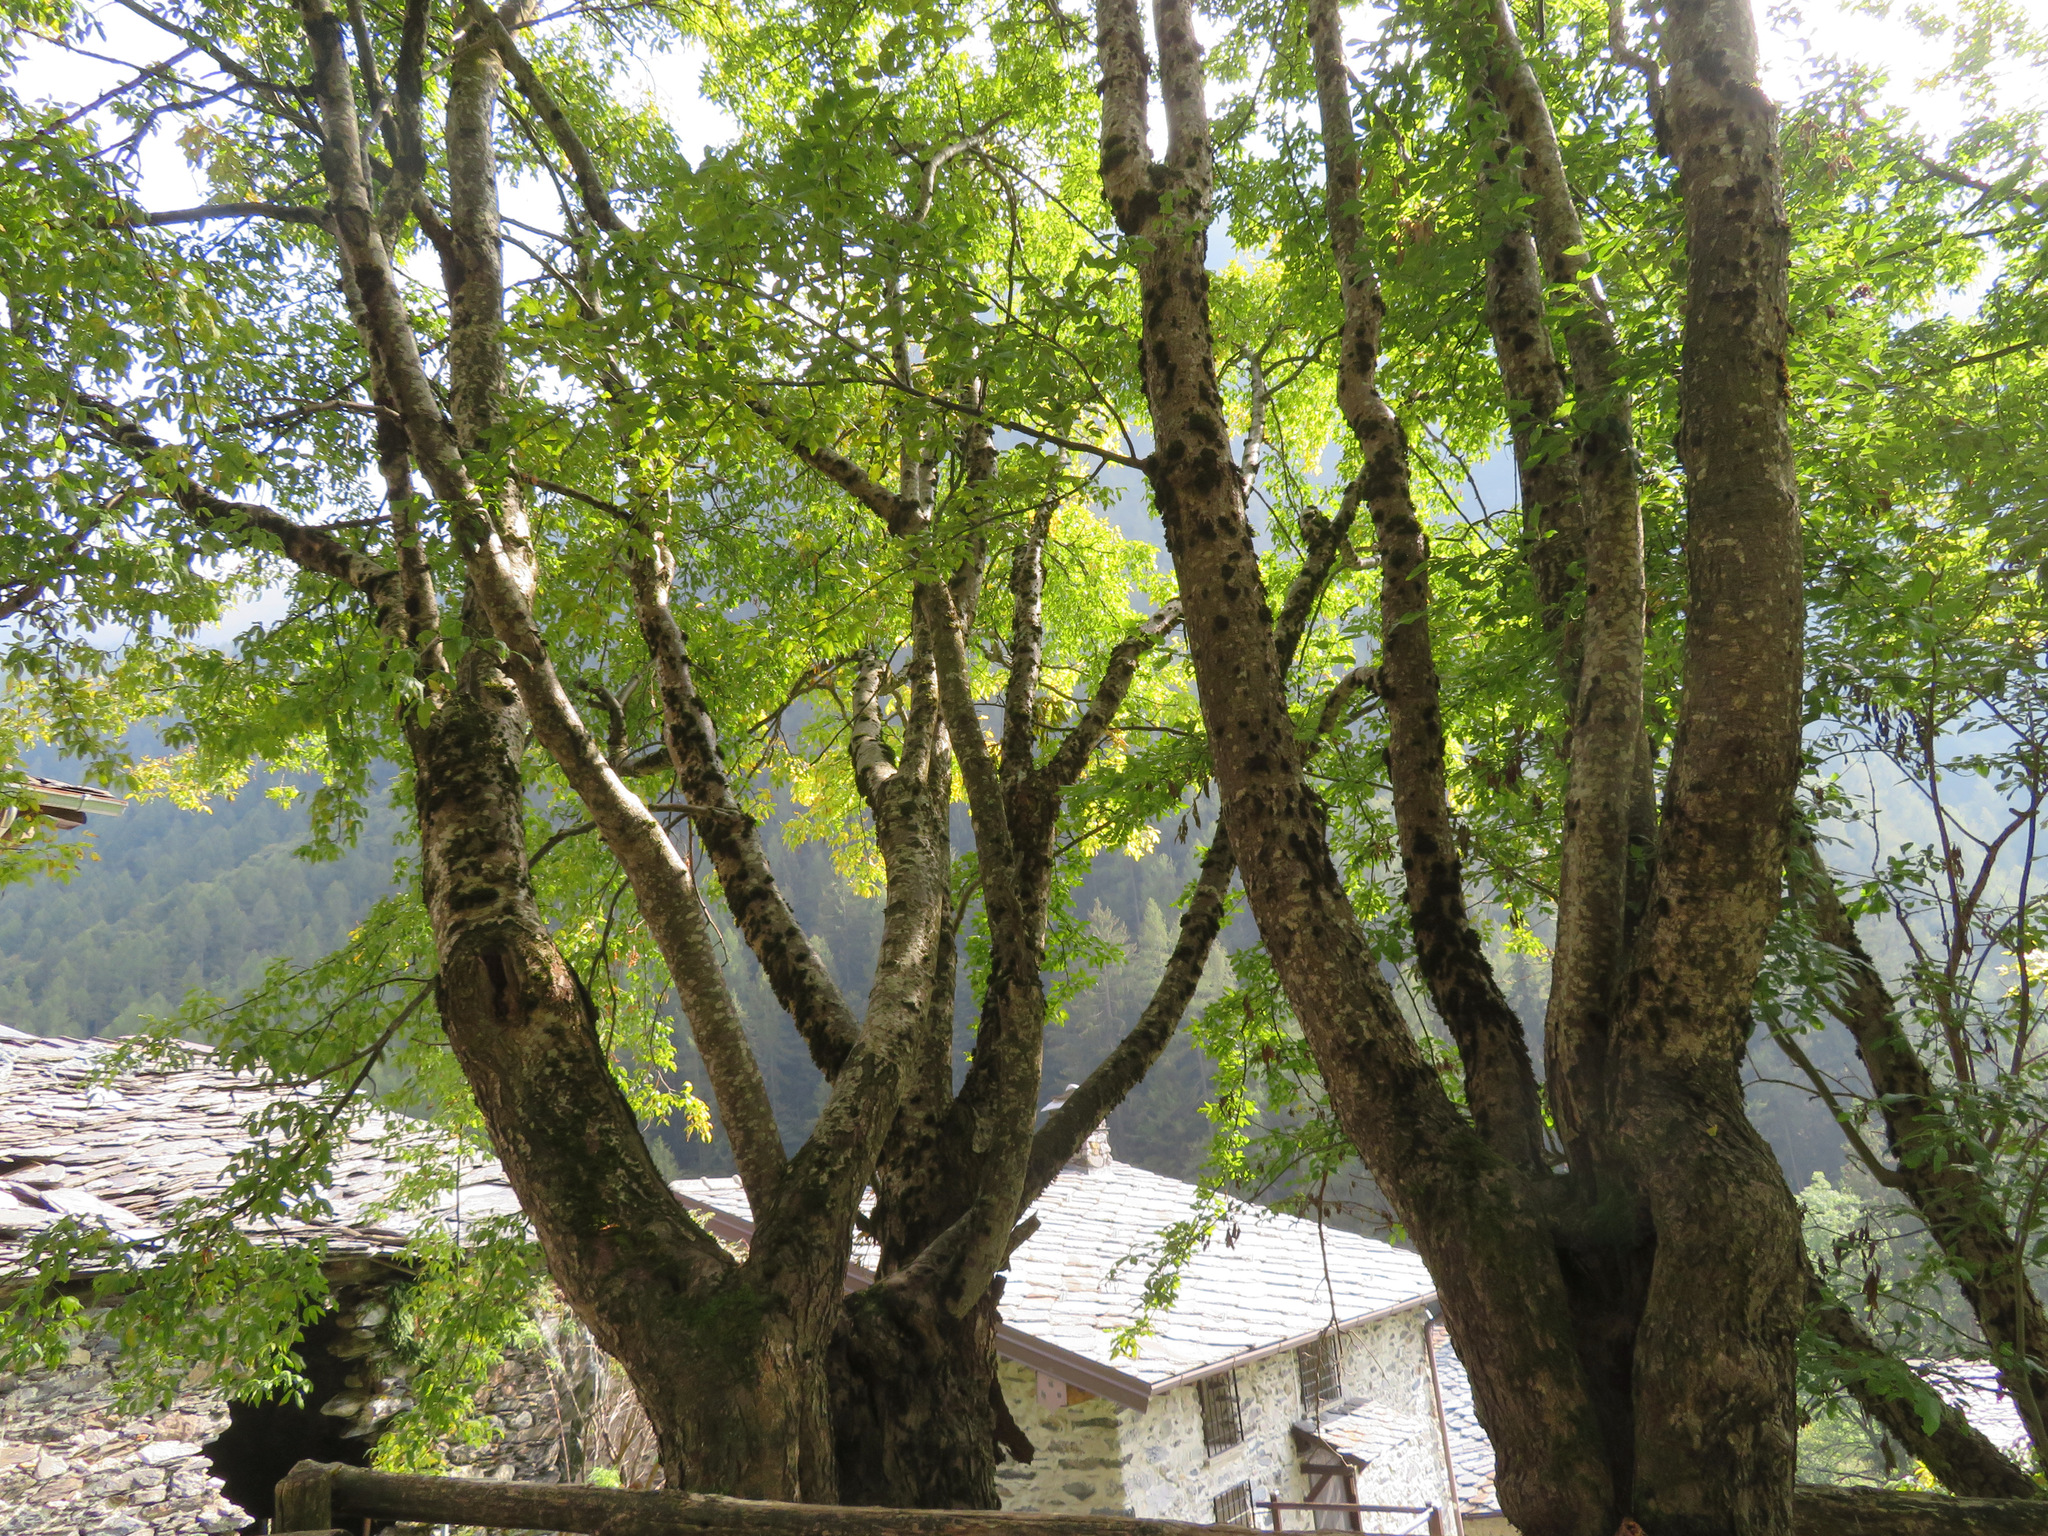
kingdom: Plantae
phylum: Tracheophyta
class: Magnoliopsida
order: Fabales
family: Fabaceae
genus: Laburnum
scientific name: Laburnum alpinum
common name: Scottish laburnum
